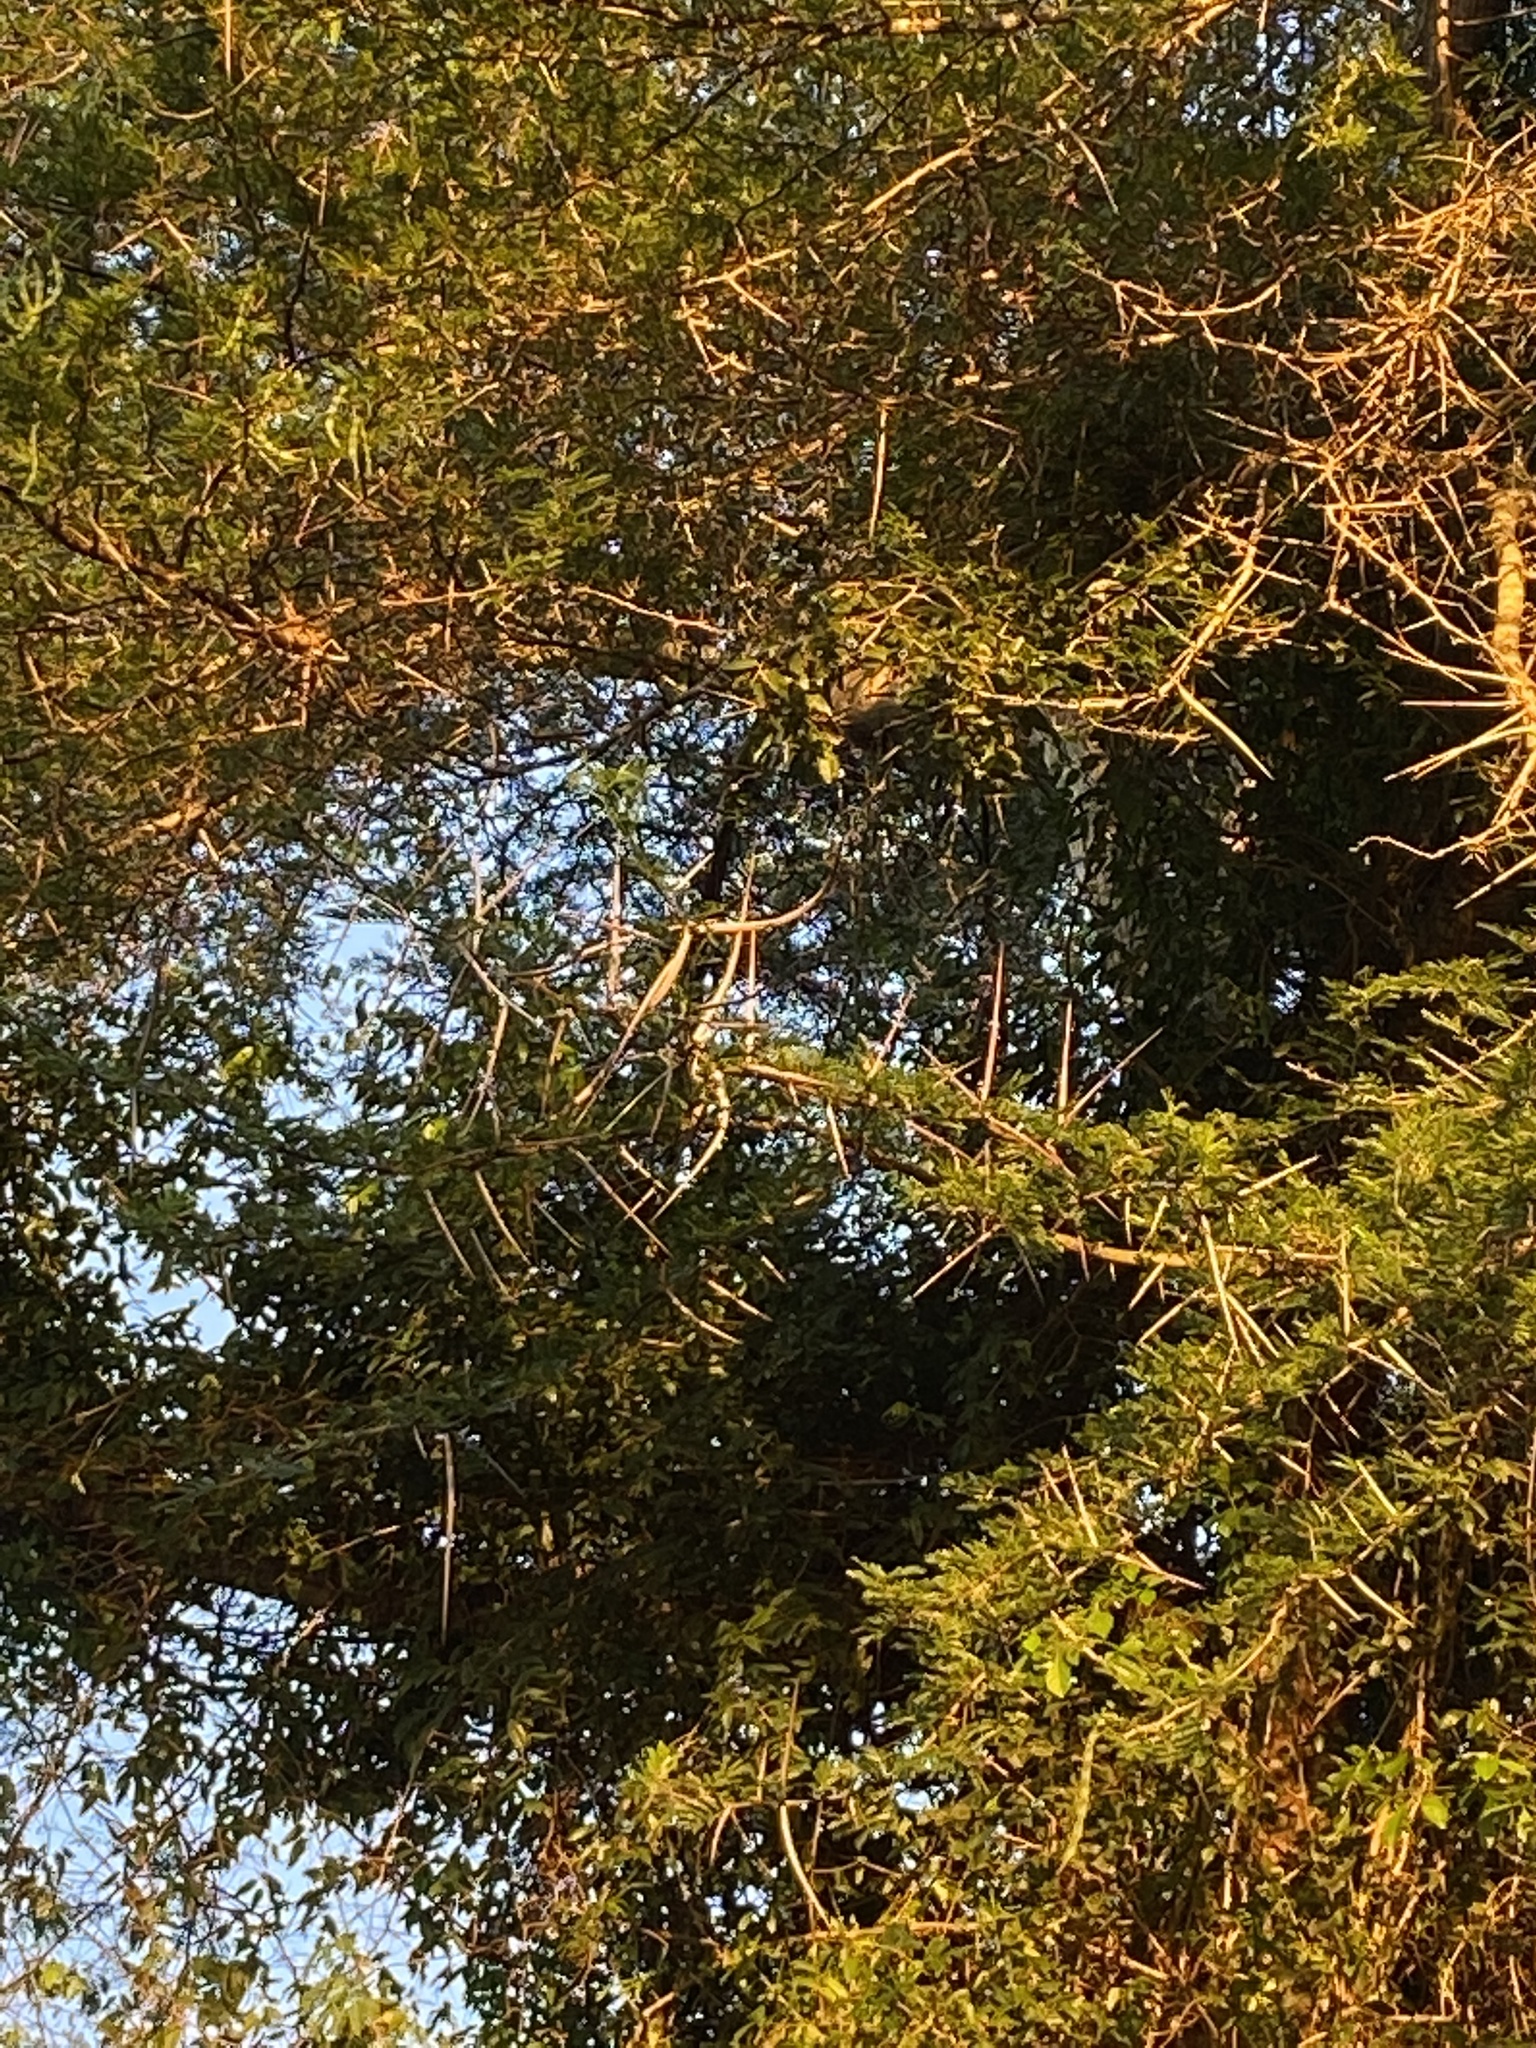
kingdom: Plantae
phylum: Tracheophyta
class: Magnoliopsida
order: Fabales
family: Fabaceae
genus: Vachellia
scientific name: Vachellia kosiensis
